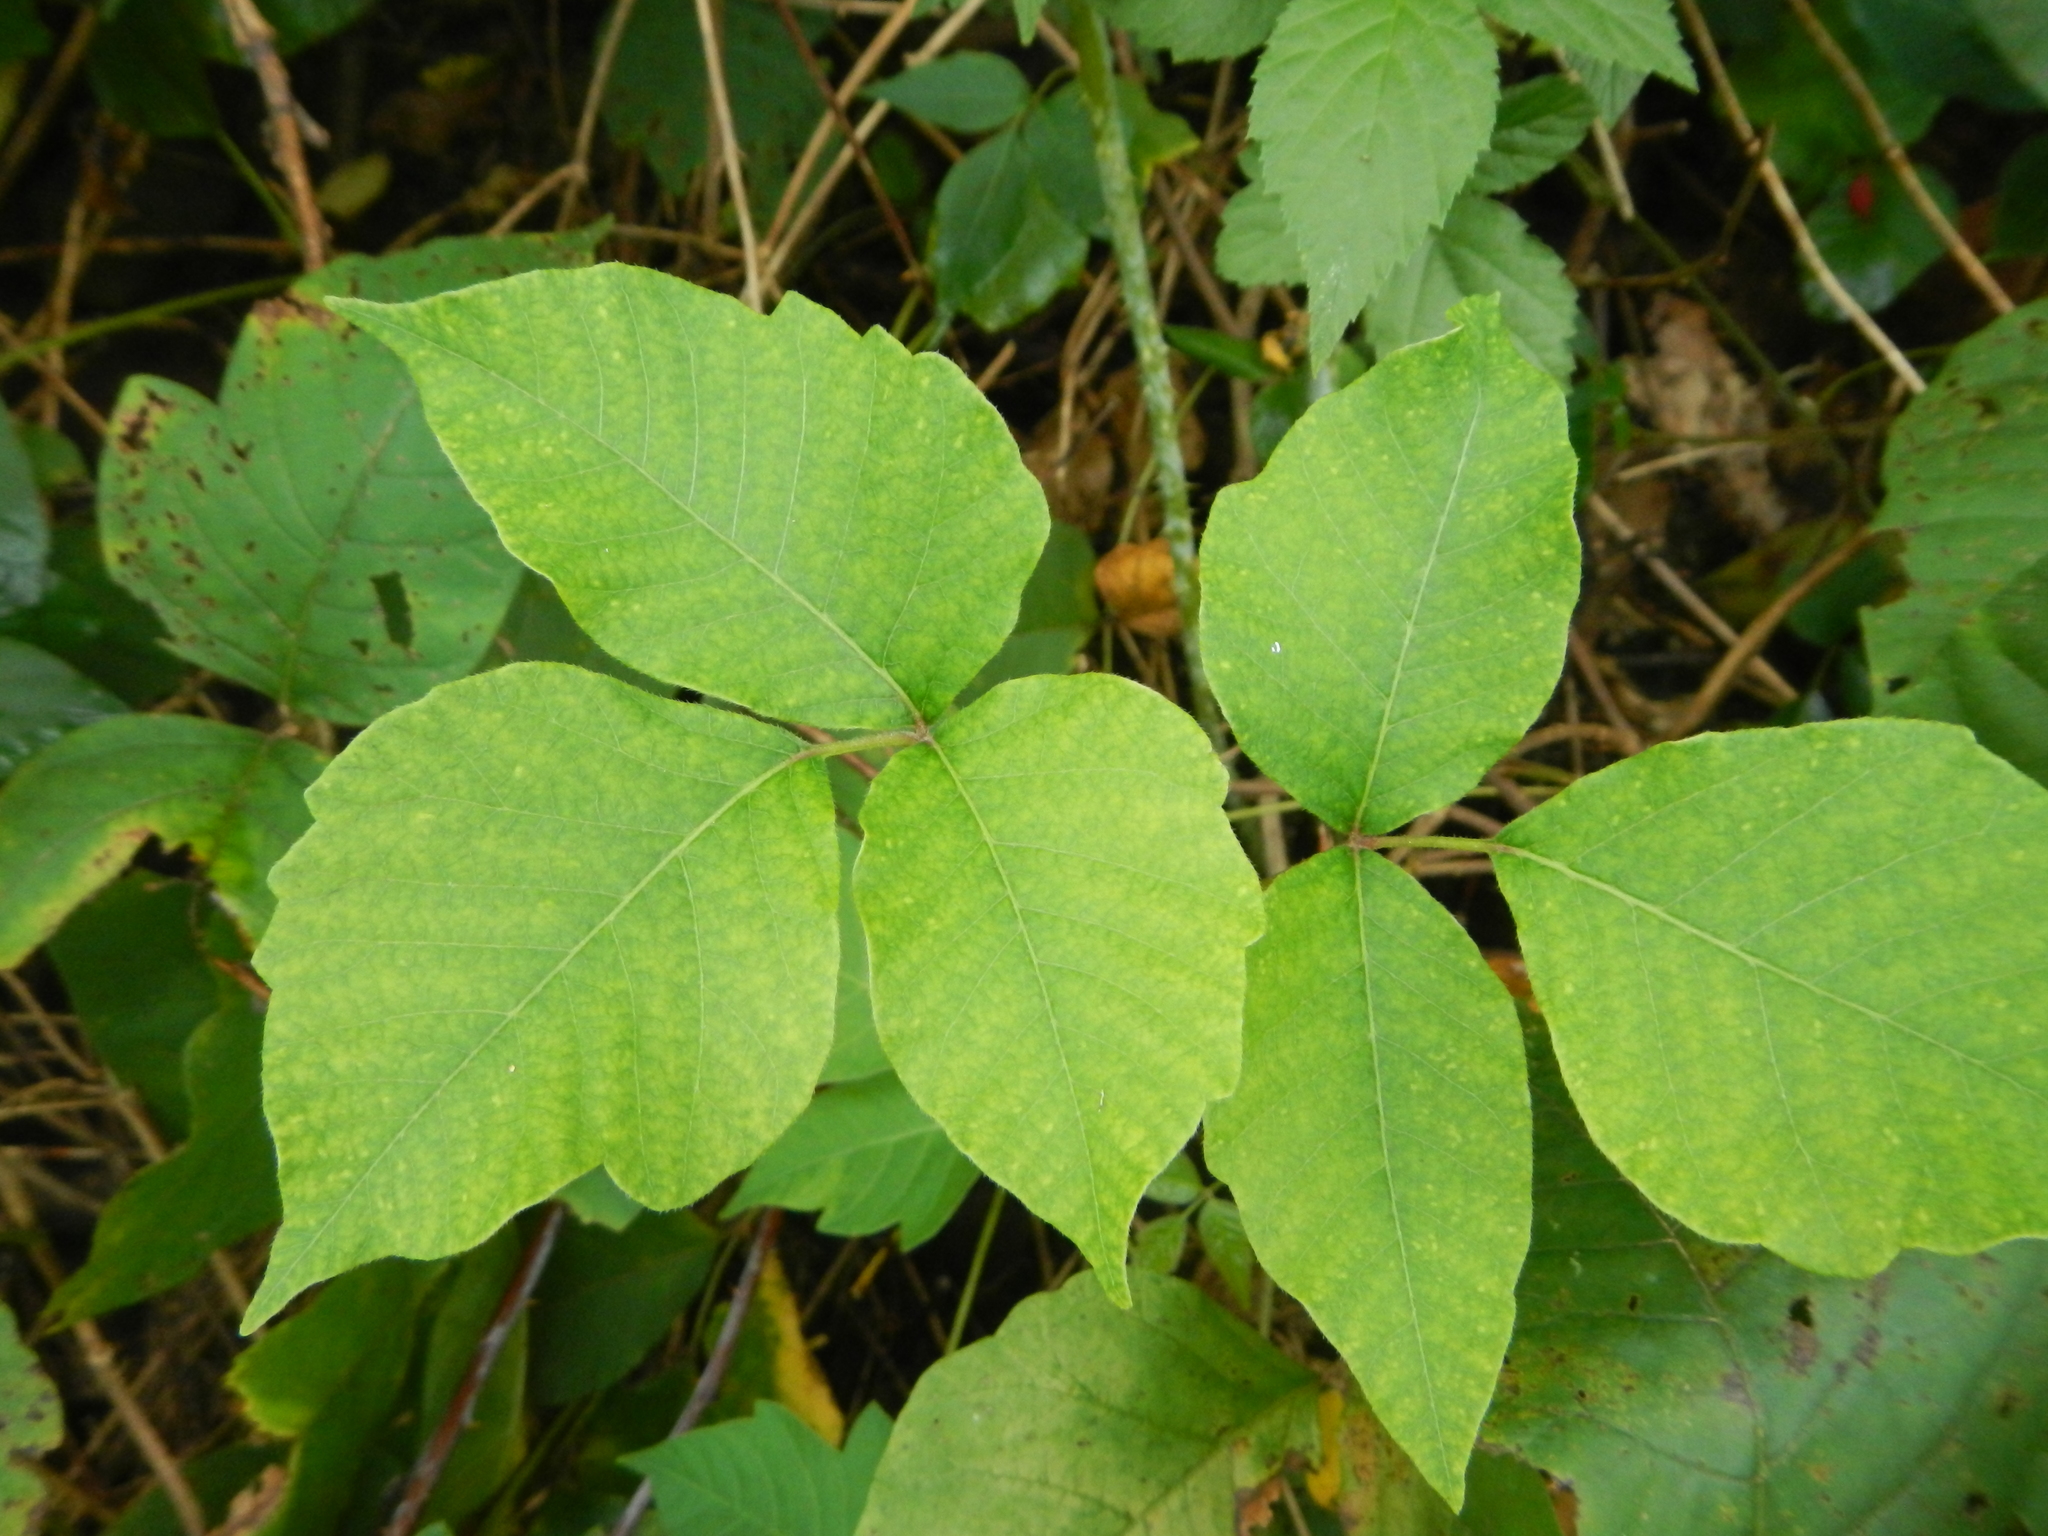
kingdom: Plantae
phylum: Tracheophyta
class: Magnoliopsida
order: Sapindales
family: Anacardiaceae
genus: Toxicodendron
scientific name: Toxicodendron radicans
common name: Poison ivy
